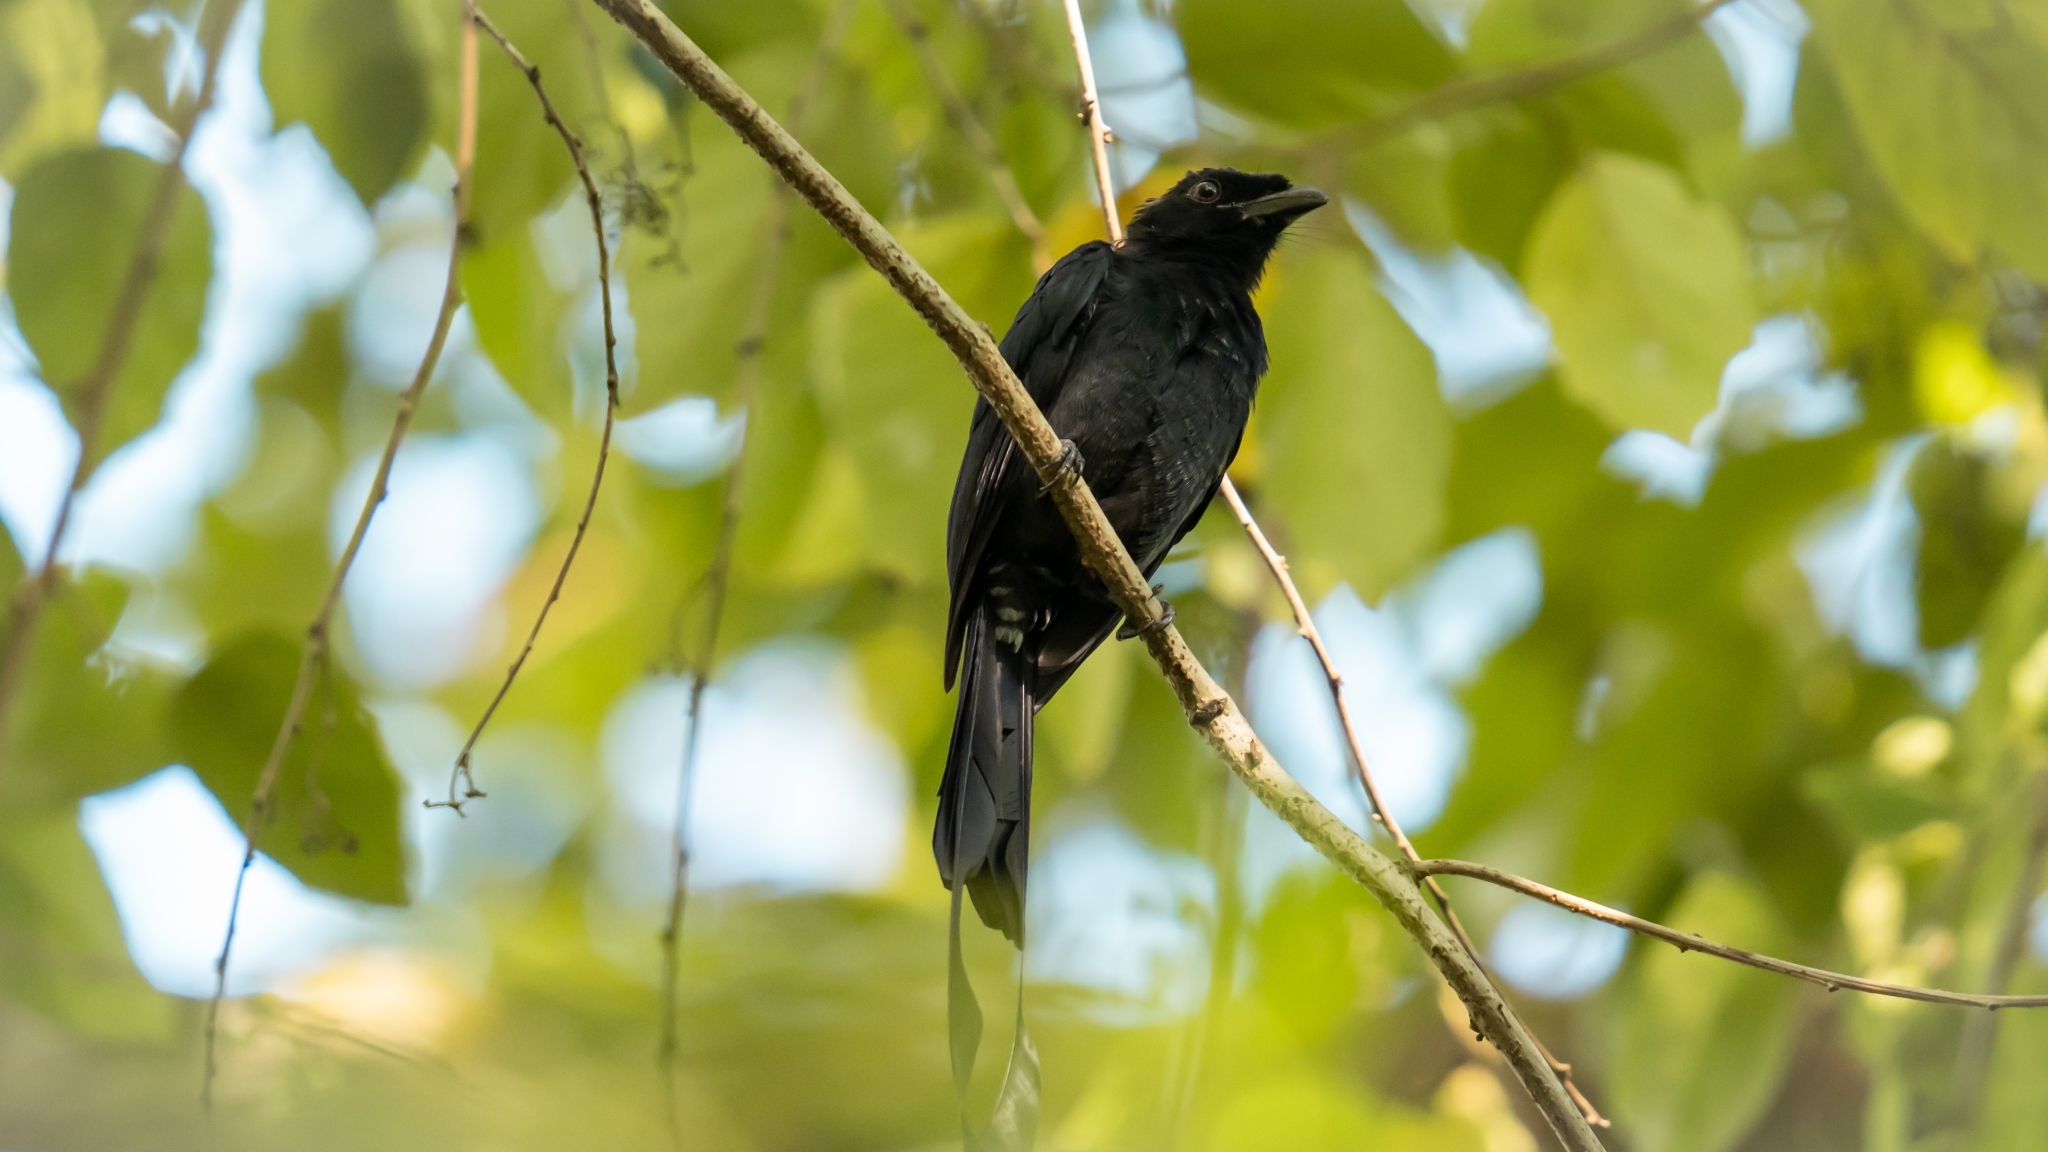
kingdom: Animalia
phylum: Chordata
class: Aves
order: Passeriformes
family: Dicruridae
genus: Dicrurus
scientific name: Dicrurus paradiseus
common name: Greater racket-tailed drongo
